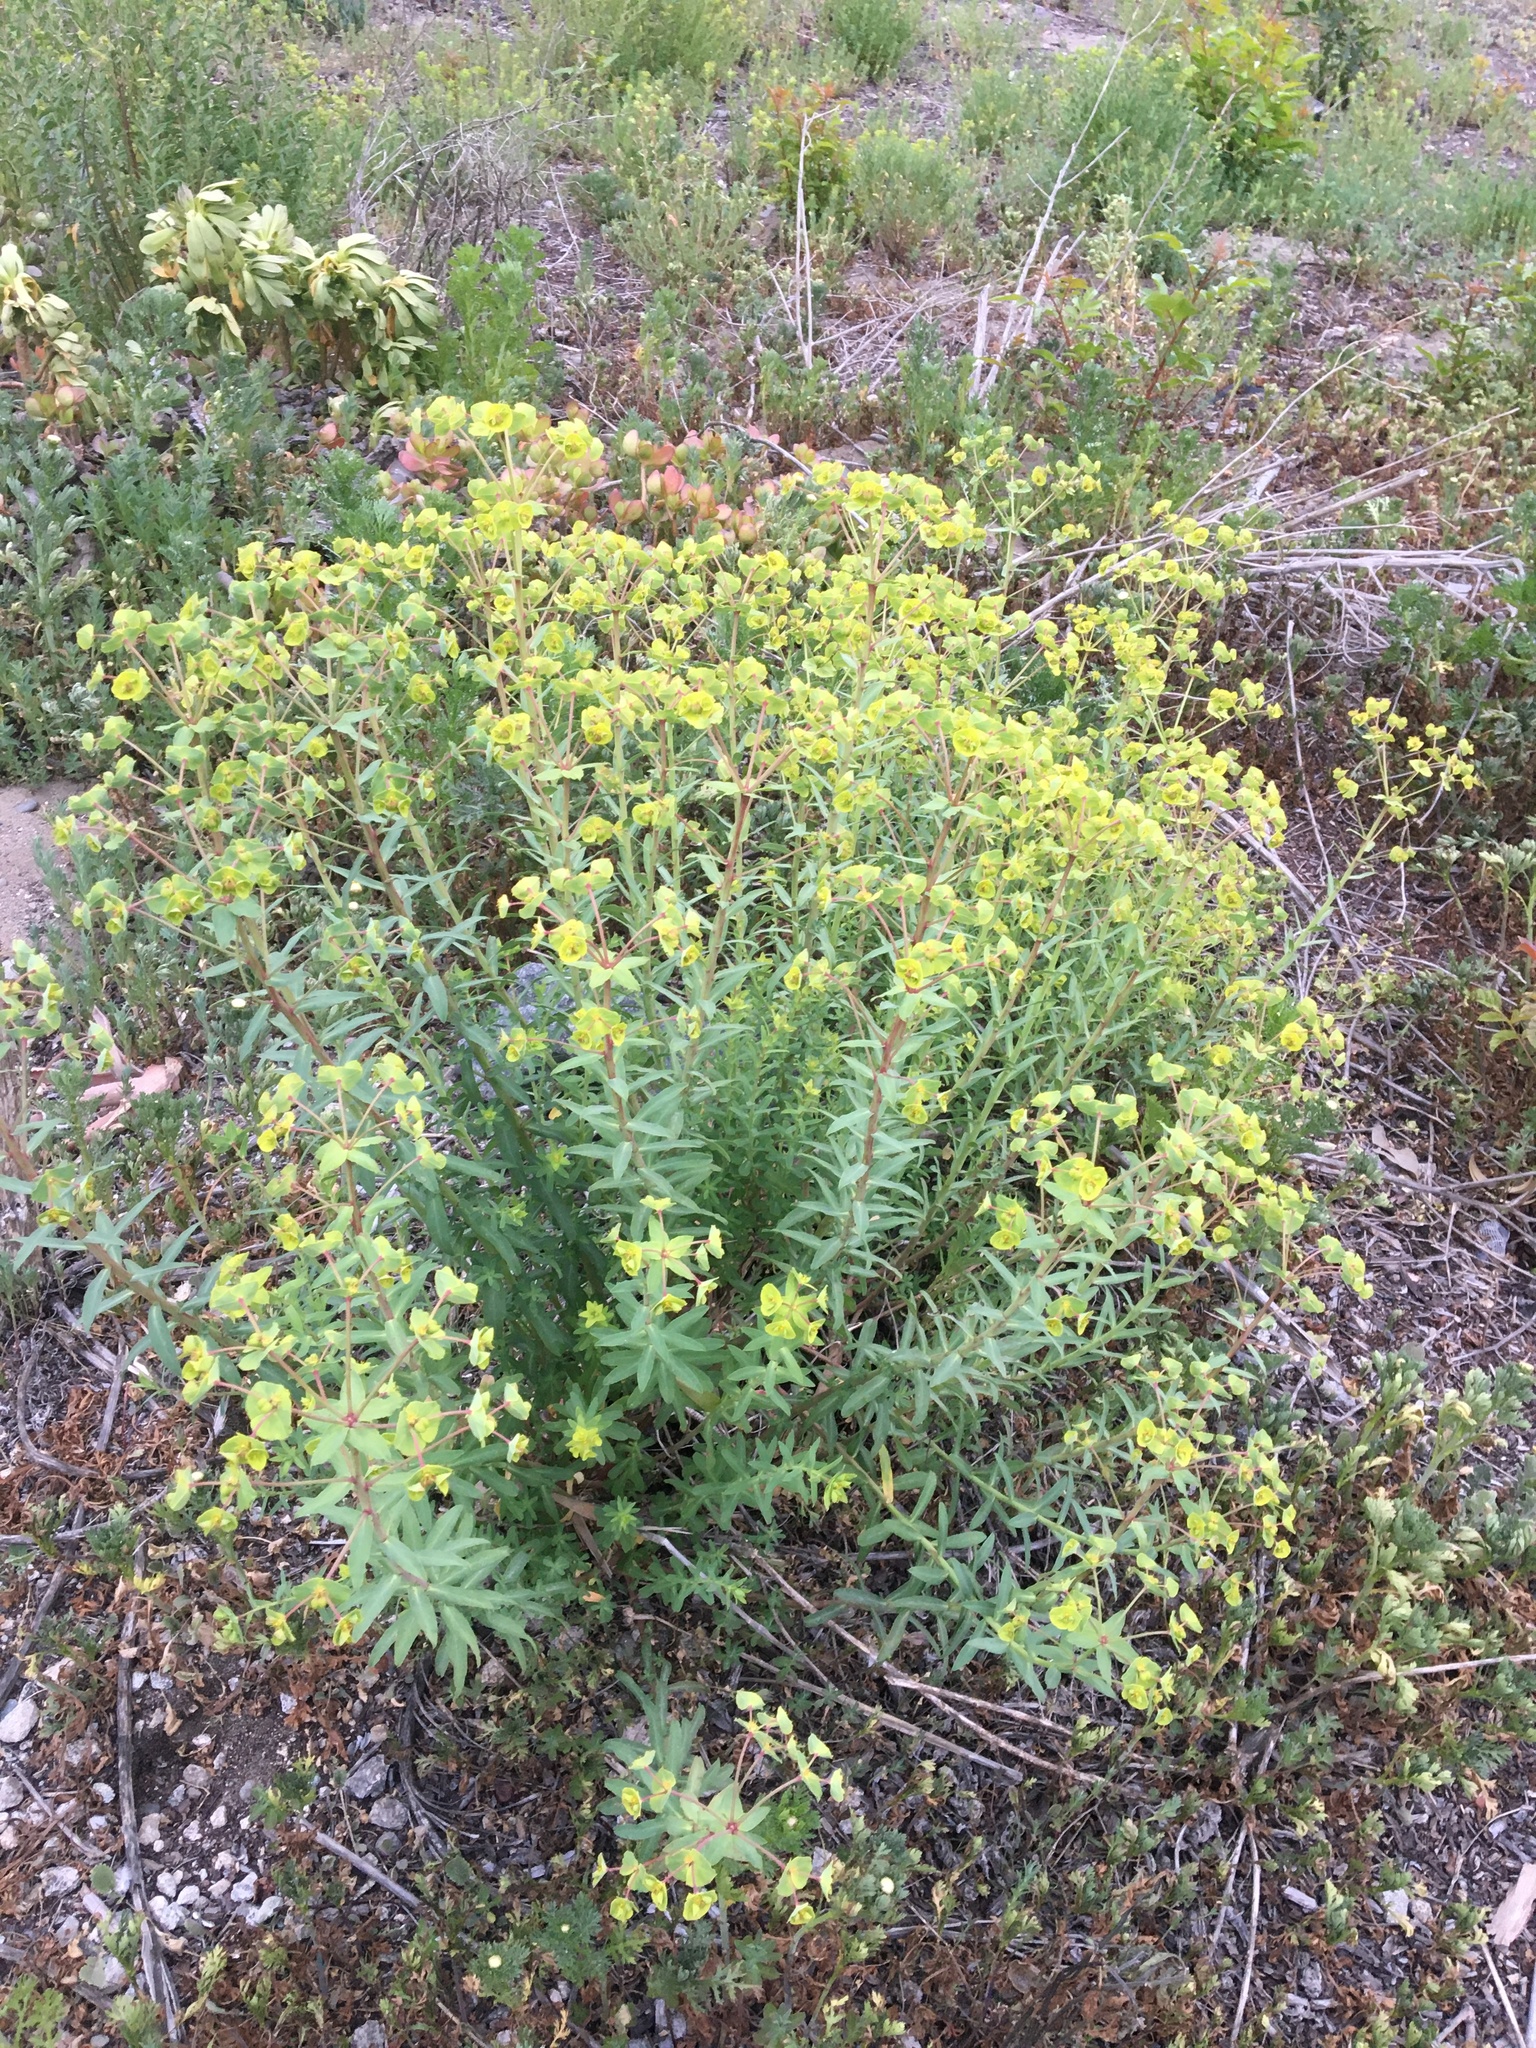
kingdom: Plantae
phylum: Tracheophyta
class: Magnoliopsida
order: Malpighiales
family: Euphorbiaceae
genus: Euphorbia
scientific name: Euphorbia terracina
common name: Geraldton carnation weed
